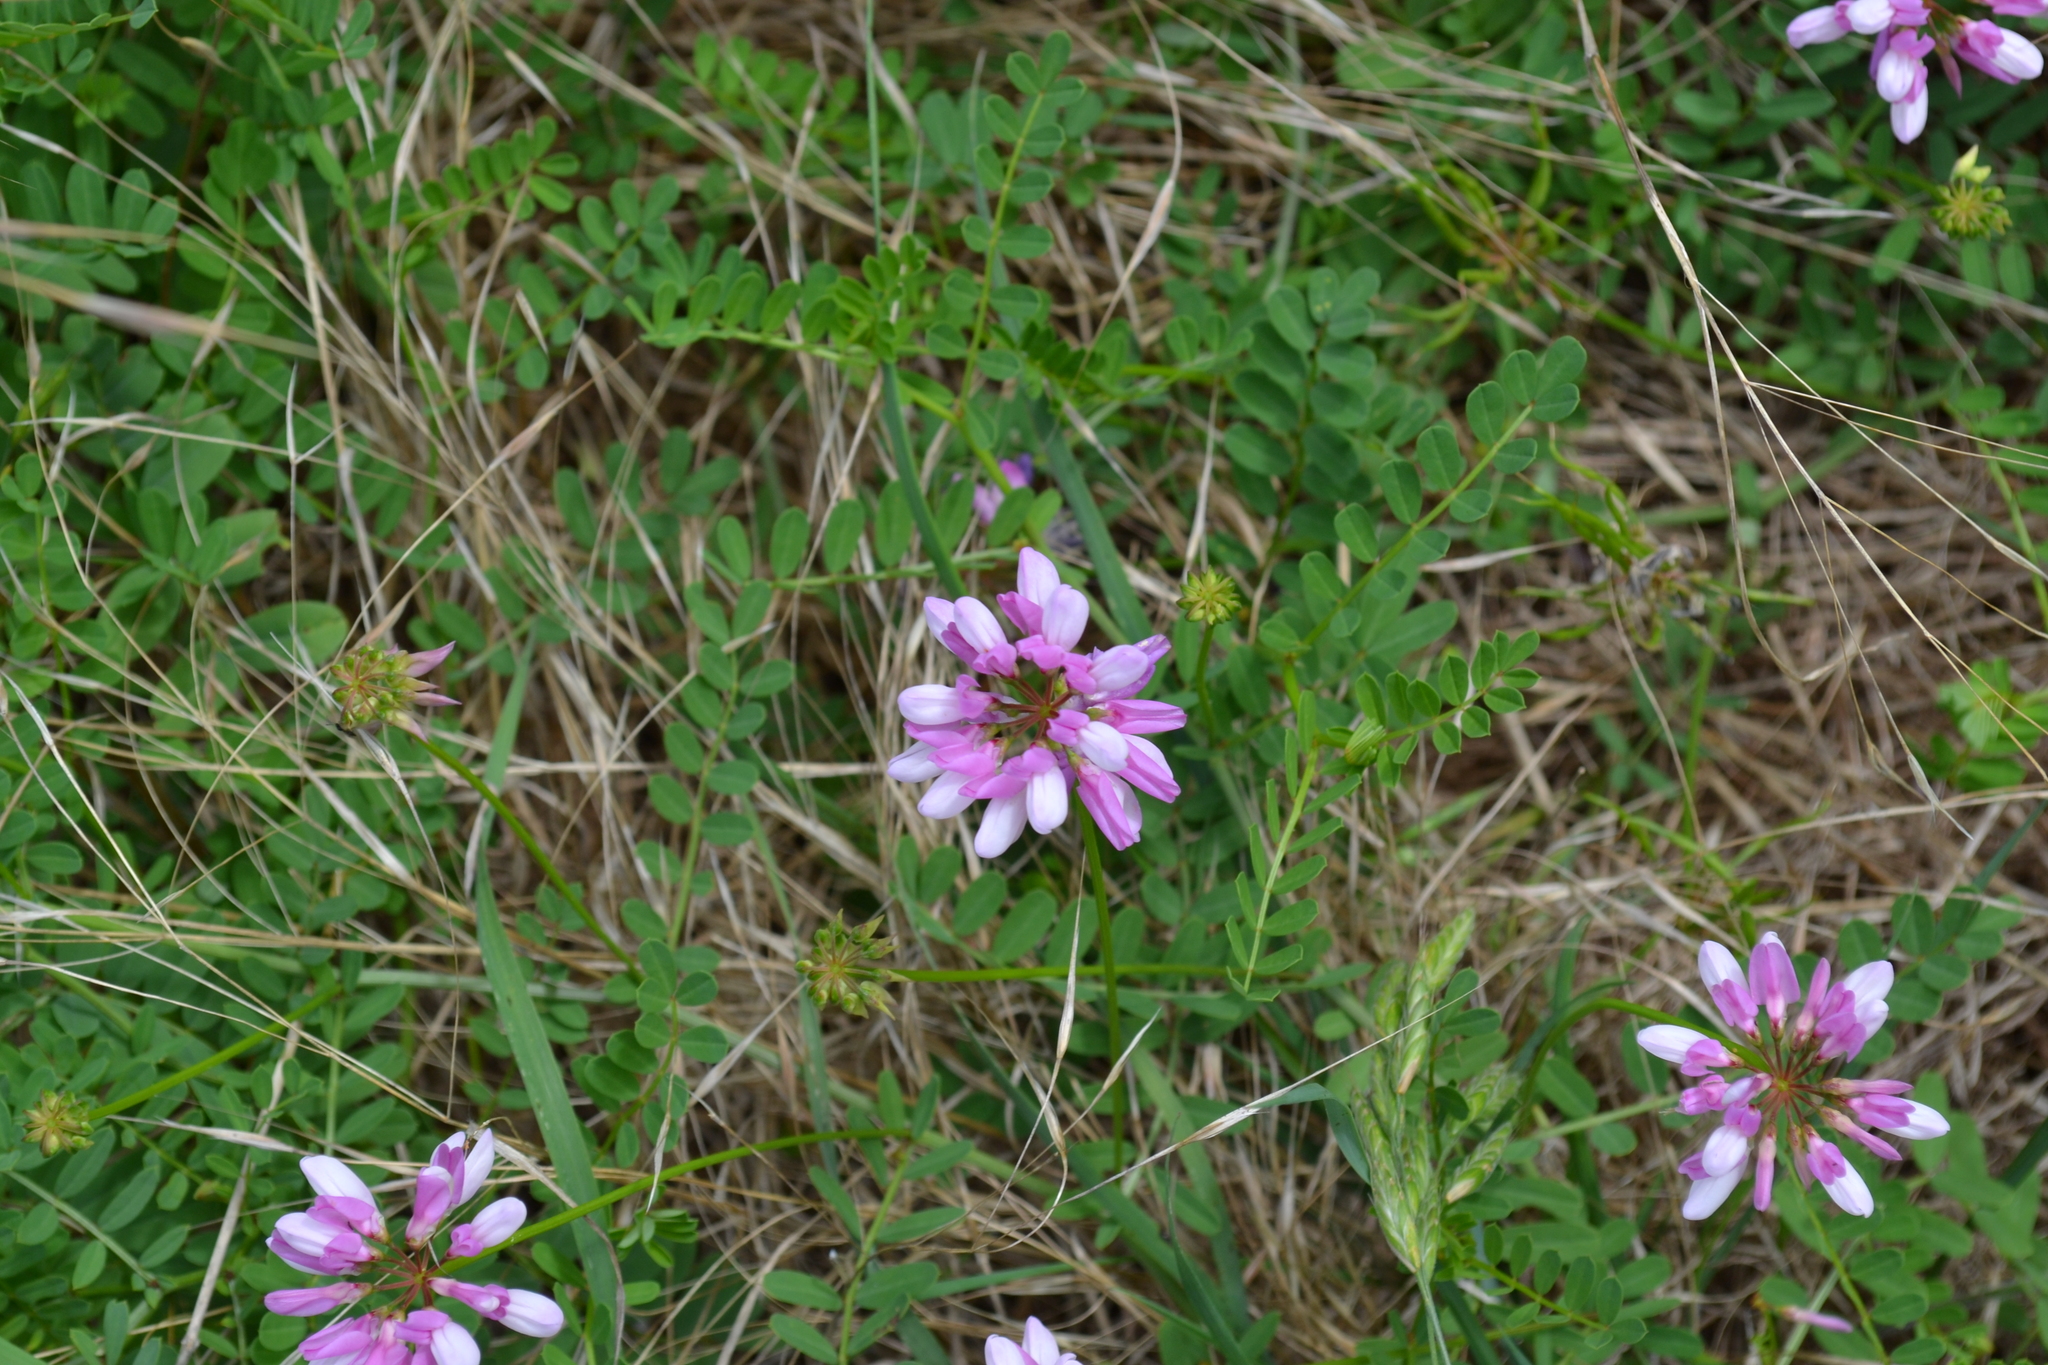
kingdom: Plantae
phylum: Tracheophyta
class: Magnoliopsida
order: Fabales
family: Fabaceae
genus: Coronilla
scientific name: Coronilla varia
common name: Crownvetch
